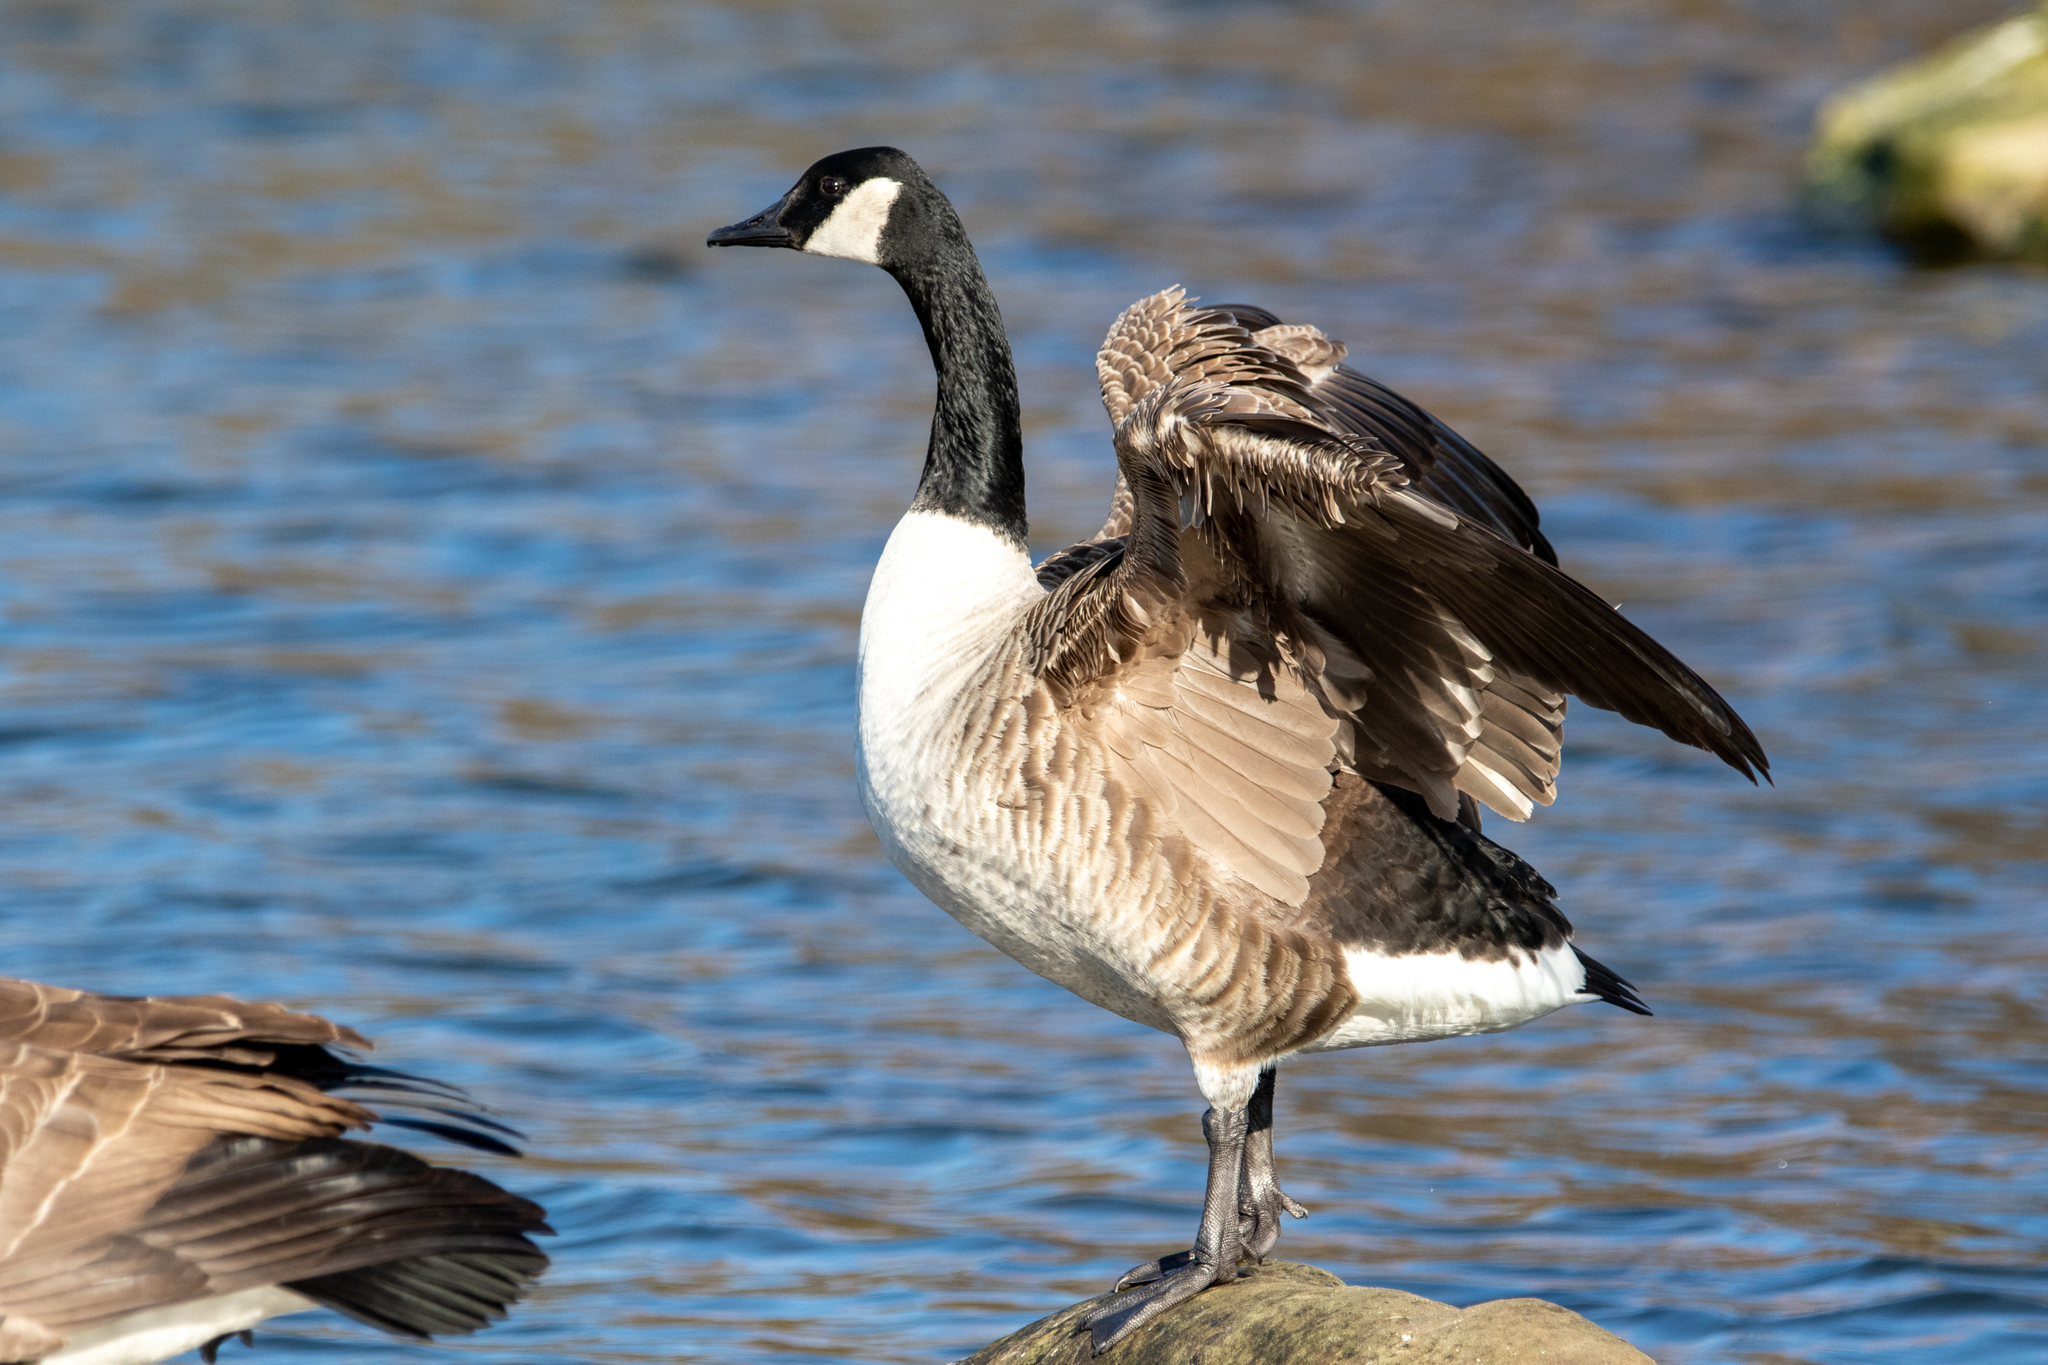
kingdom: Animalia
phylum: Chordata
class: Aves
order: Anseriformes
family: Anatidae
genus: Branta
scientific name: Branta canadensis
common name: Canada goose
